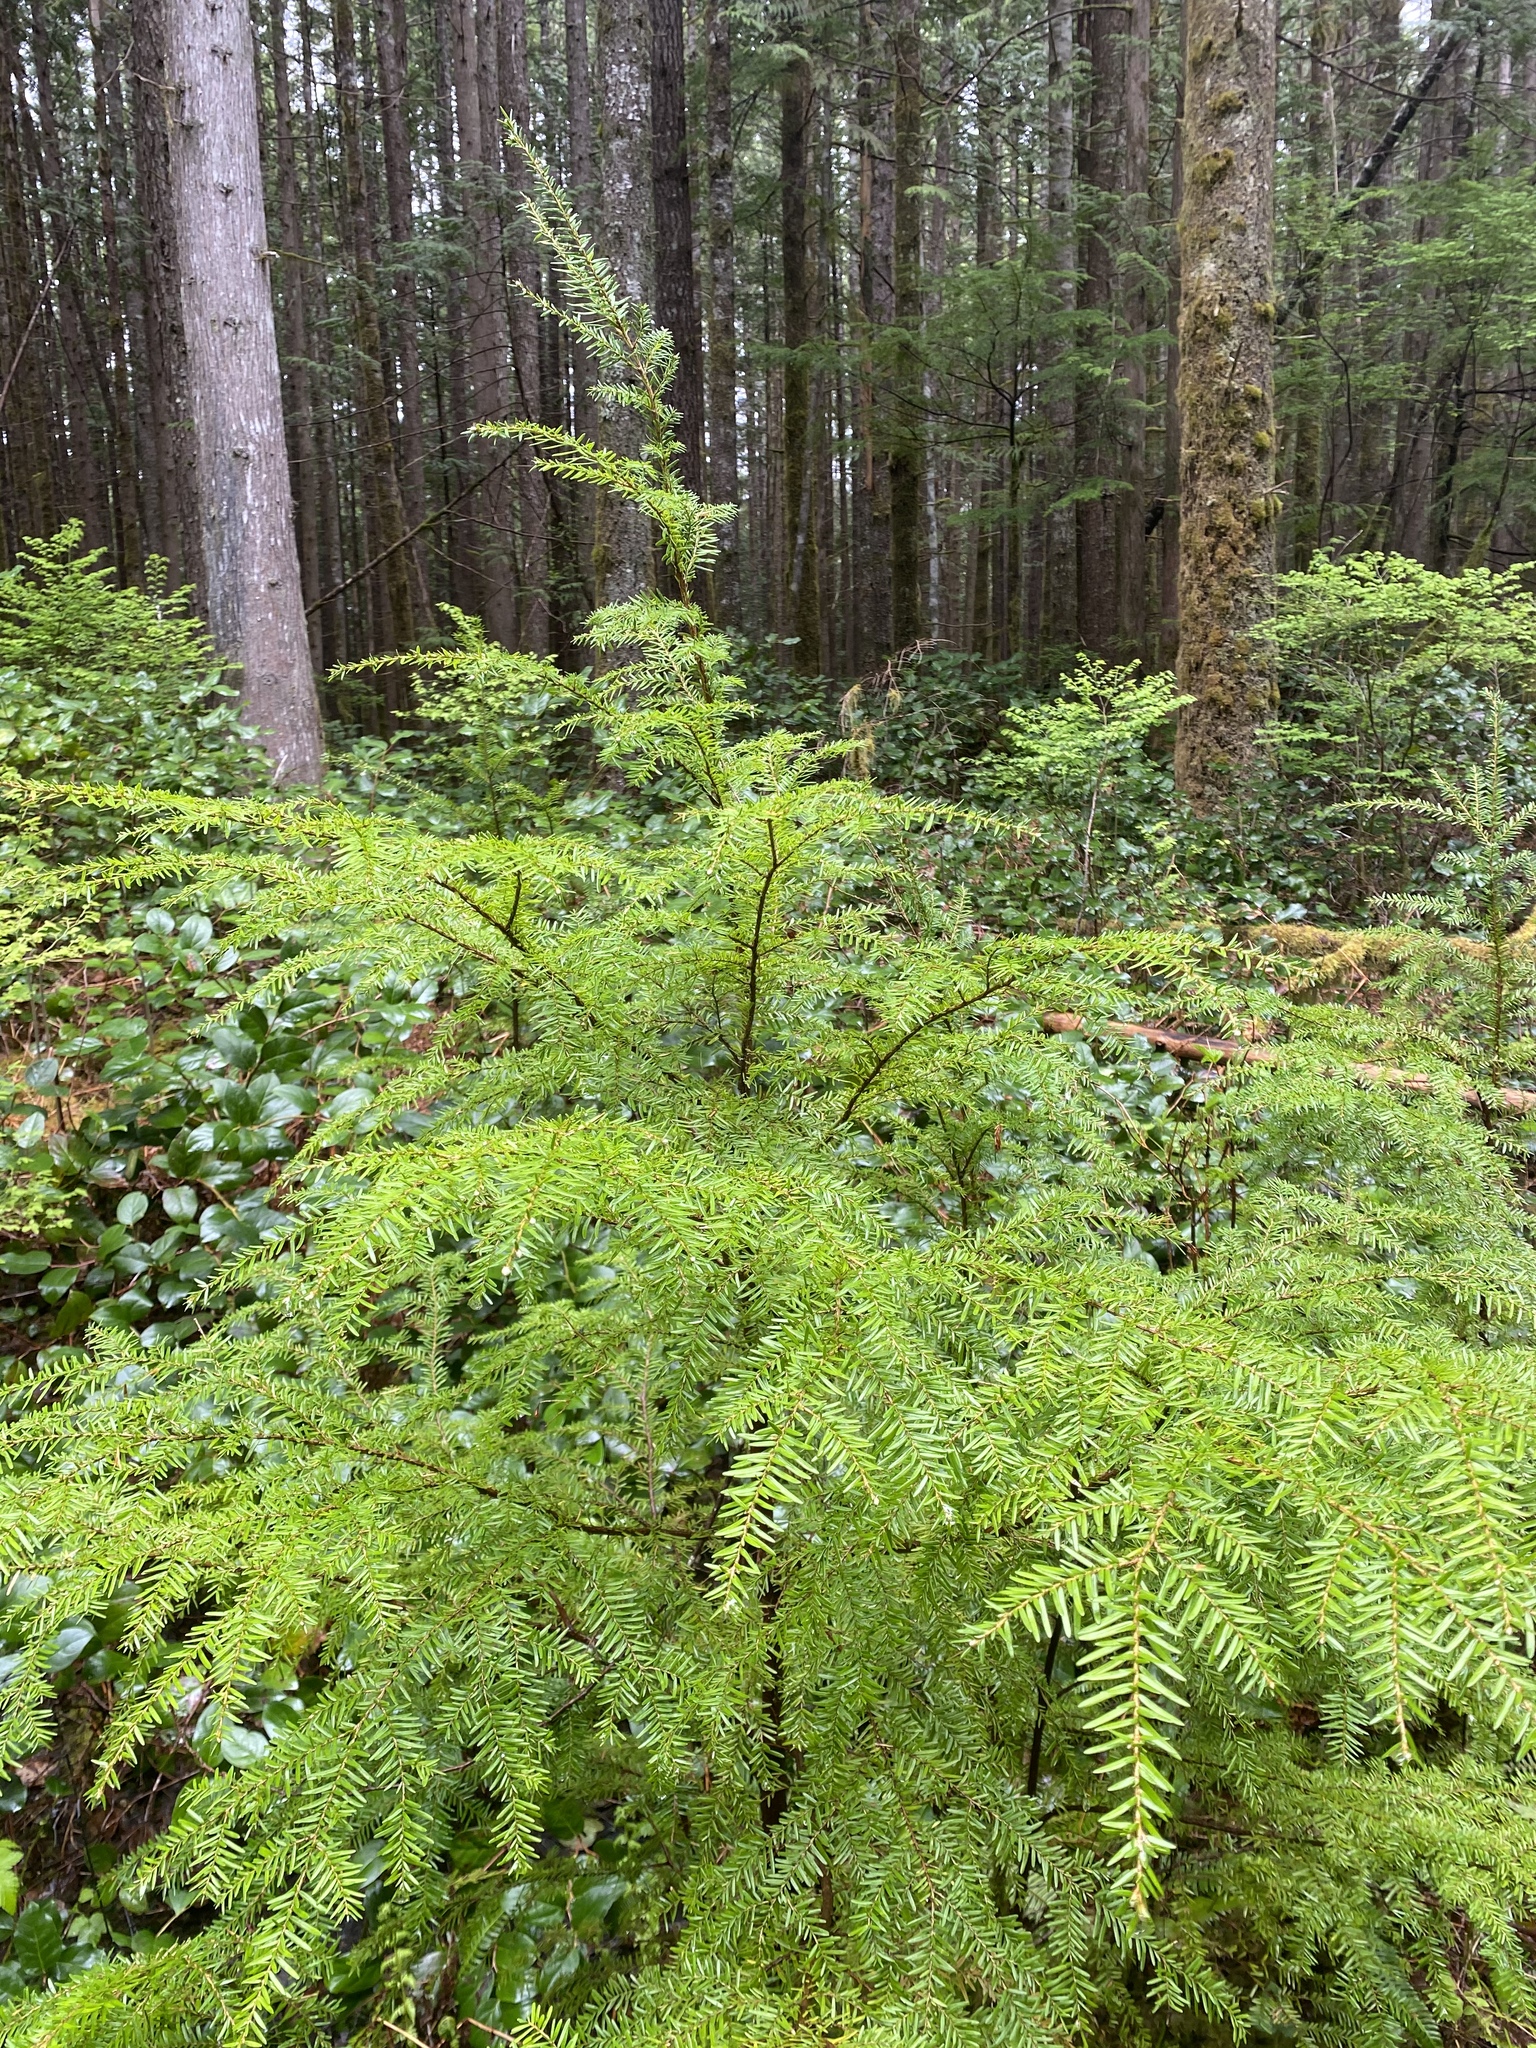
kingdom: Plantae
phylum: Tracheophyta
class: Pinopsida
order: Pinales
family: Pinaceae
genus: Tsuga
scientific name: Tsuga heterophylla
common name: Western hemlock
